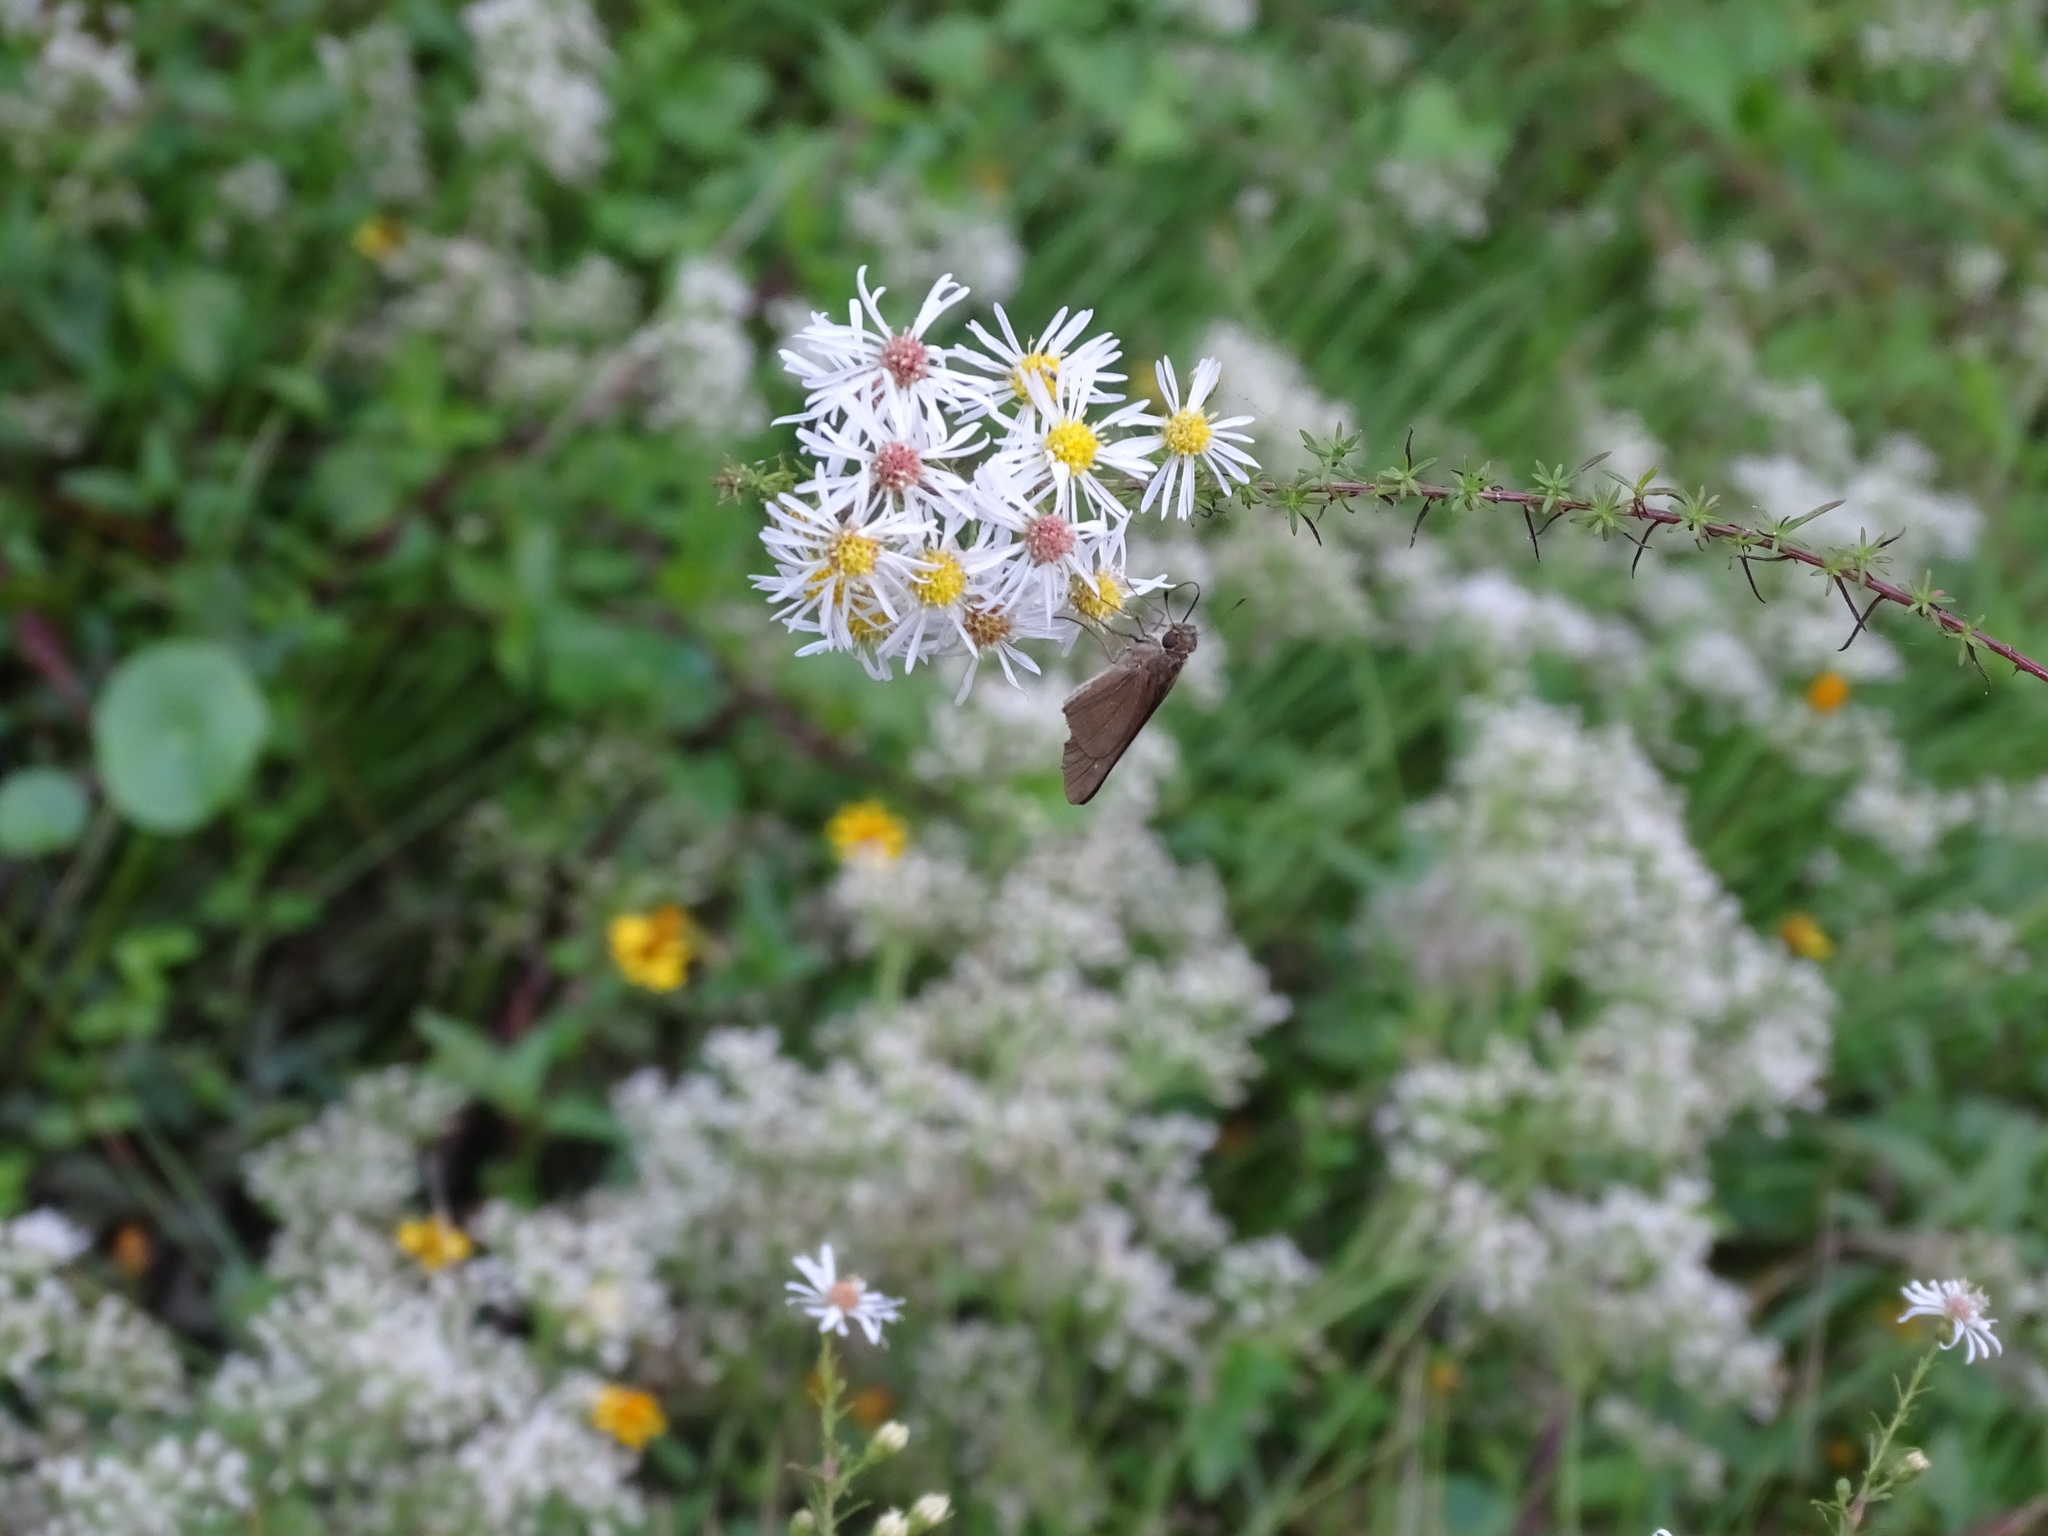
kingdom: Animalia
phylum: Arthropoda
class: Insecta
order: Lepidoptera
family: Hesperiidae
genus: Panoquina
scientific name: Panoquina ocola
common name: Ocola skipper
